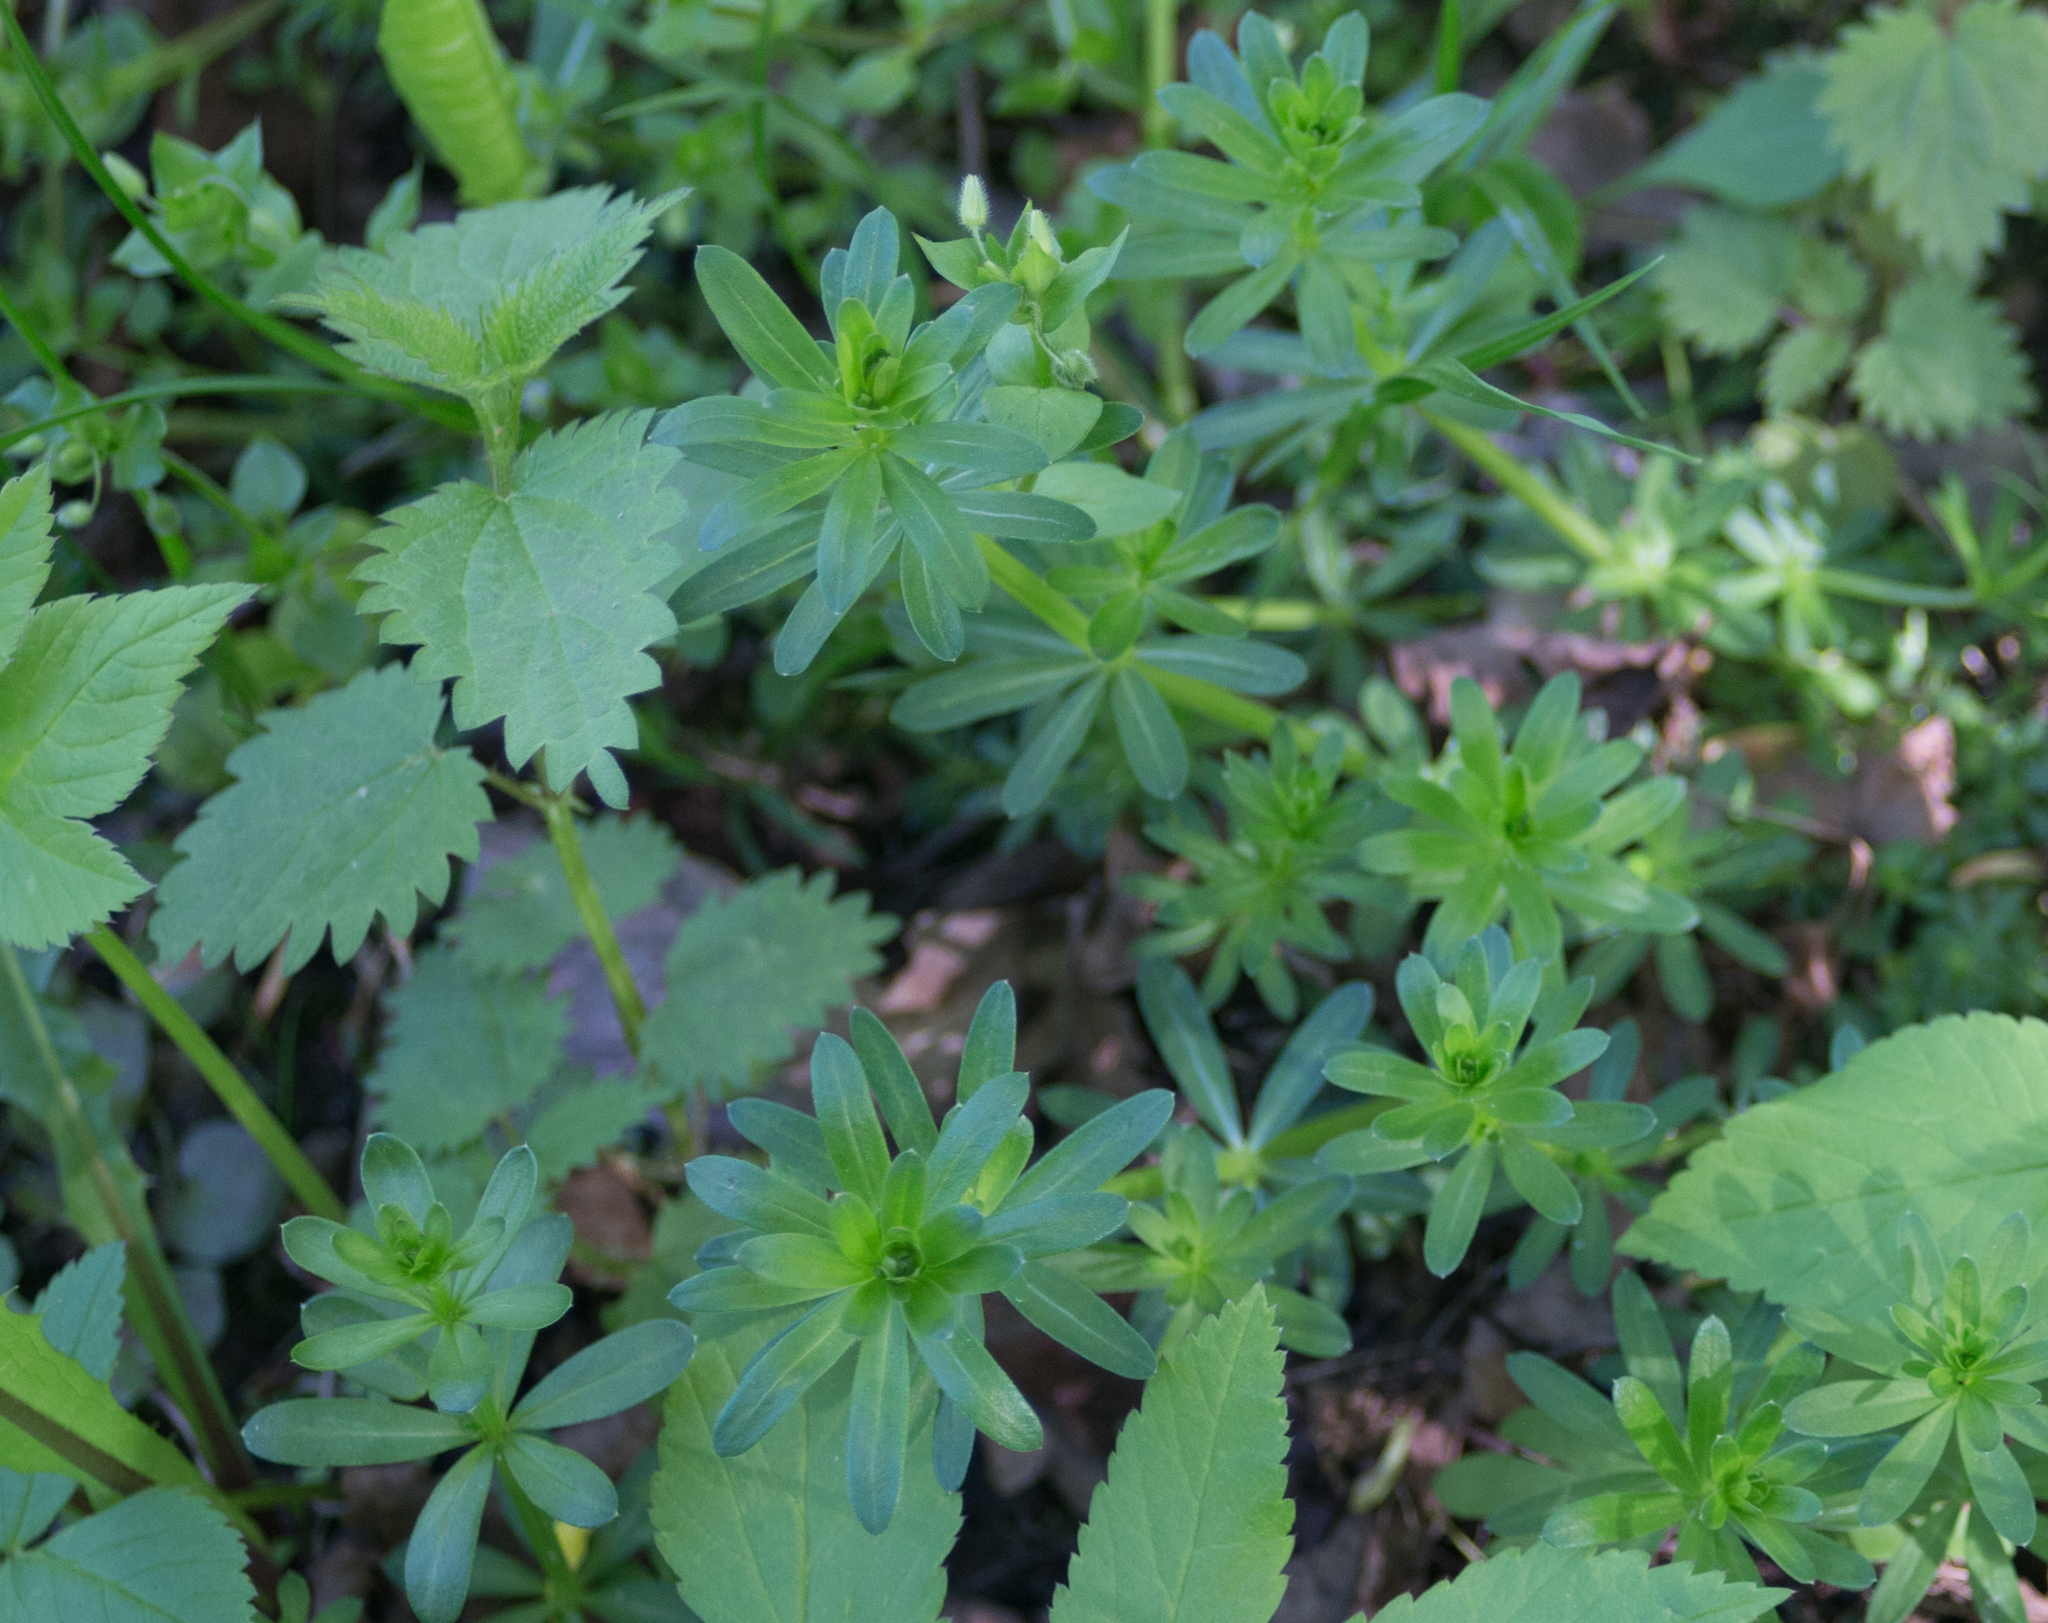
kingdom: Plantae
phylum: Tracheophyta
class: Magnoliopsida
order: Gentianales
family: Rubiaceae
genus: Galium
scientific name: Galium mollugo
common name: Hedge bedstraw
